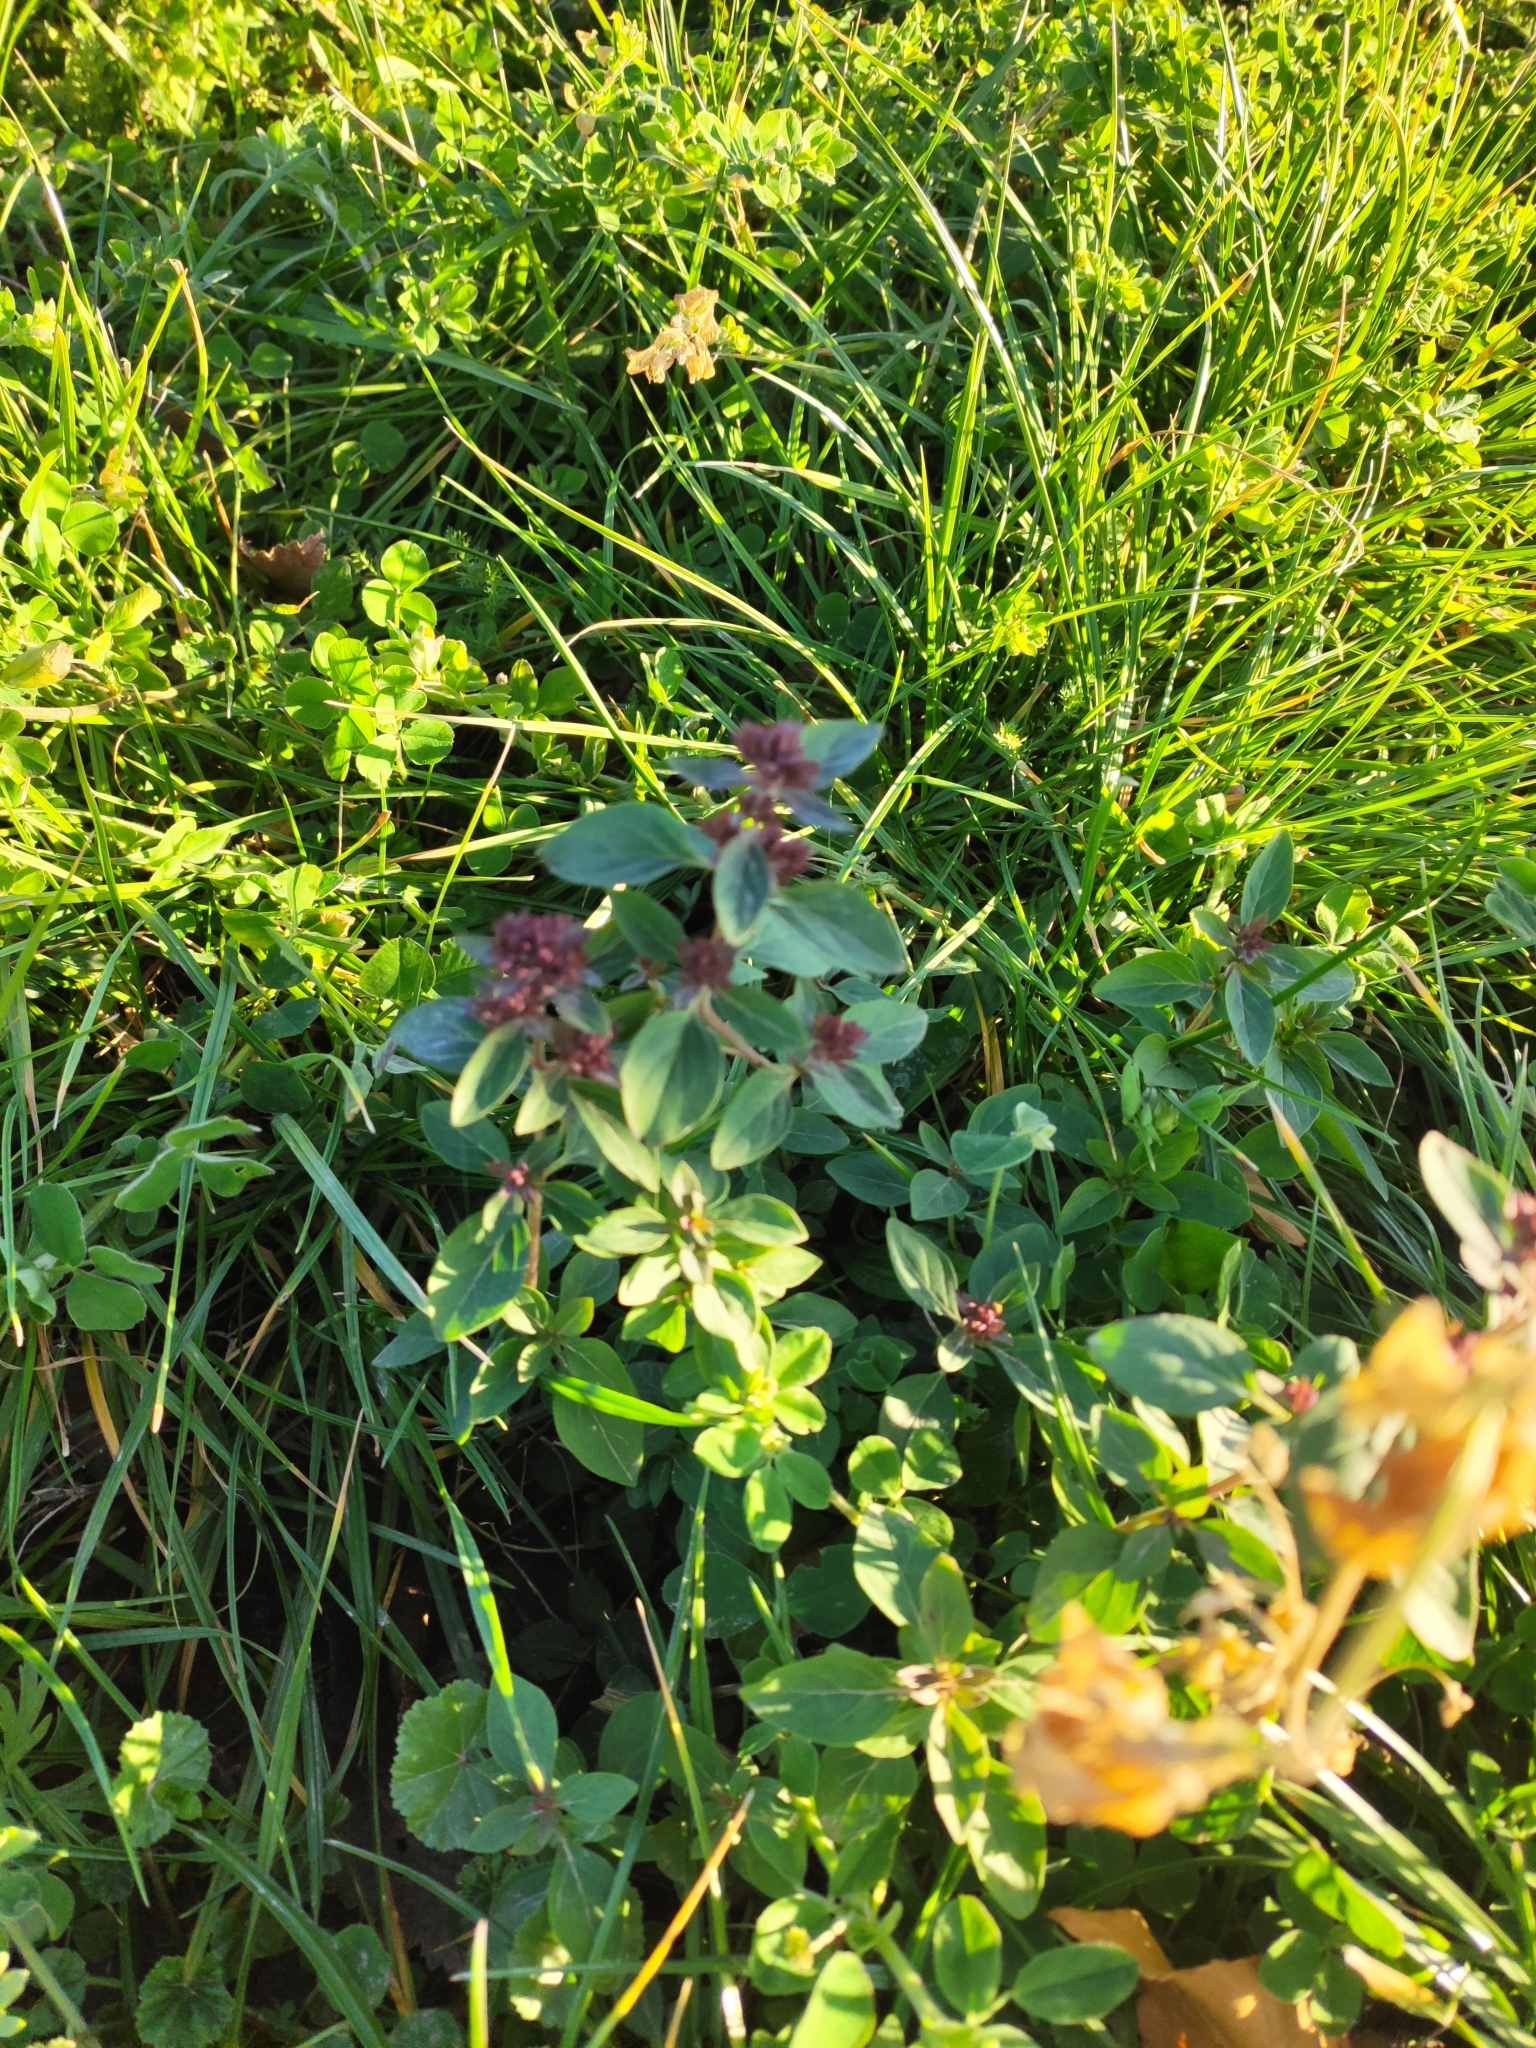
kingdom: Plantae
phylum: Tracheophyta
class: Magnoliopsida
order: Lamiales
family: Lamiaceae
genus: Origanum
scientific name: Origanum vulgare
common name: Wild marjoram
